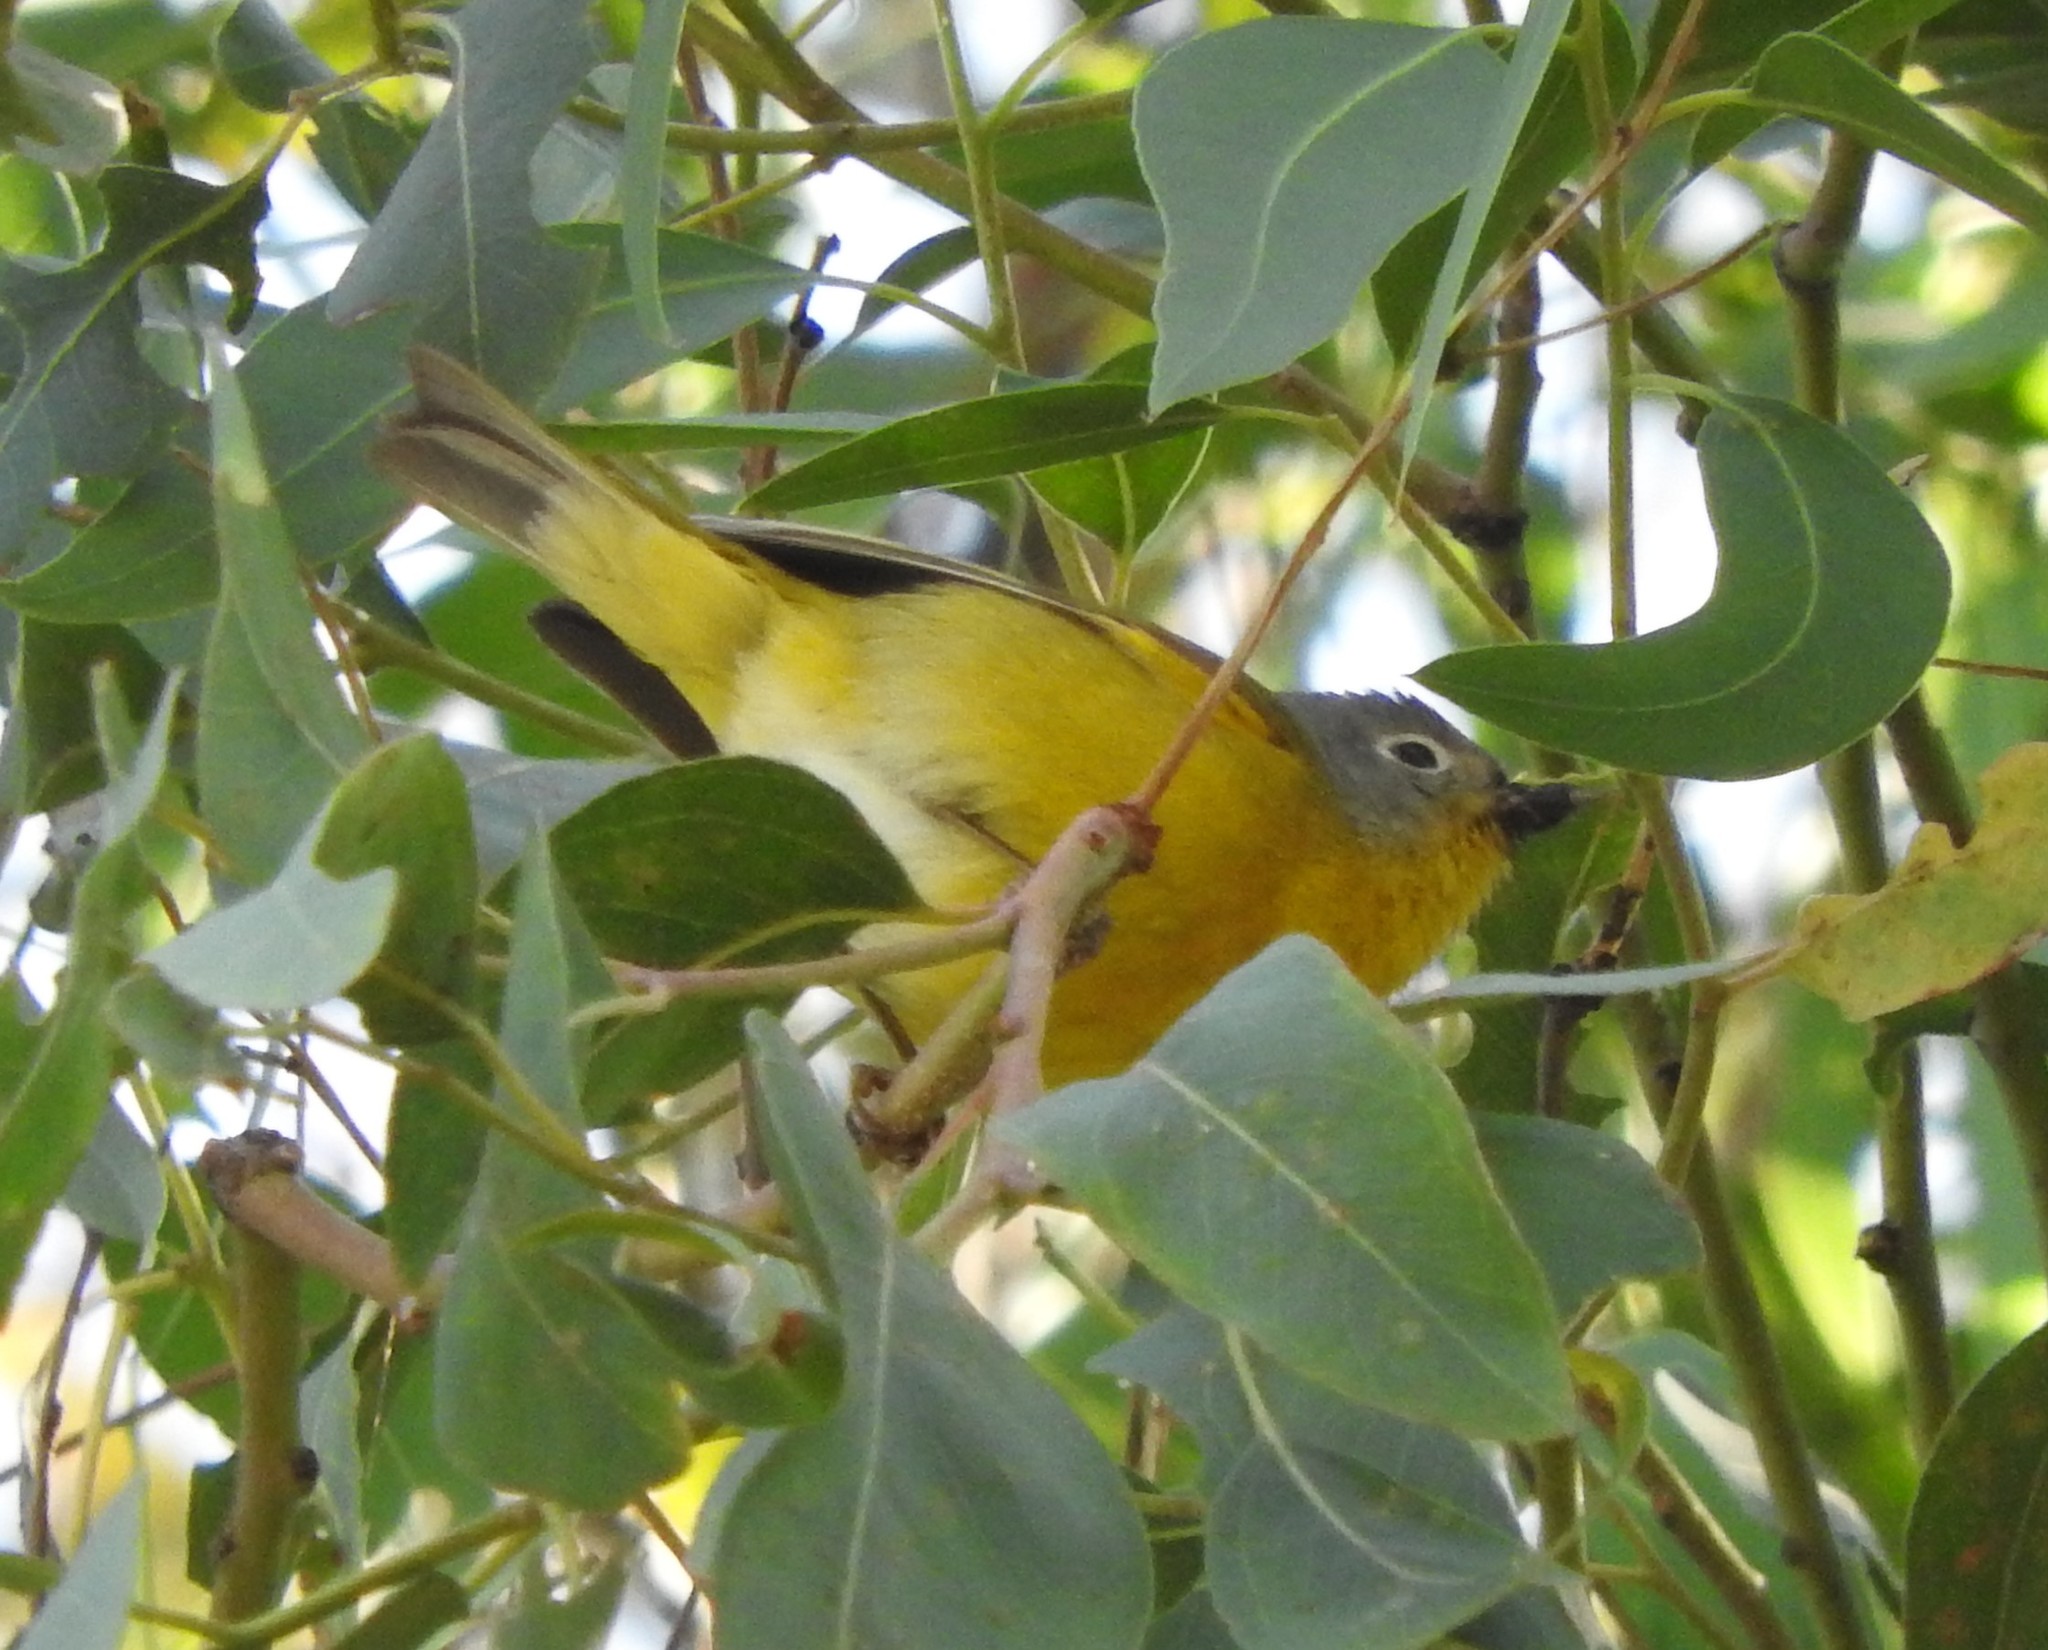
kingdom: Animalia
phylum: Chordata
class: Aves
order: Passeriformes
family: Parulidae
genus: Leiothlypis
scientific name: Leiothlypis ruficapilla
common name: Nashville warbler
